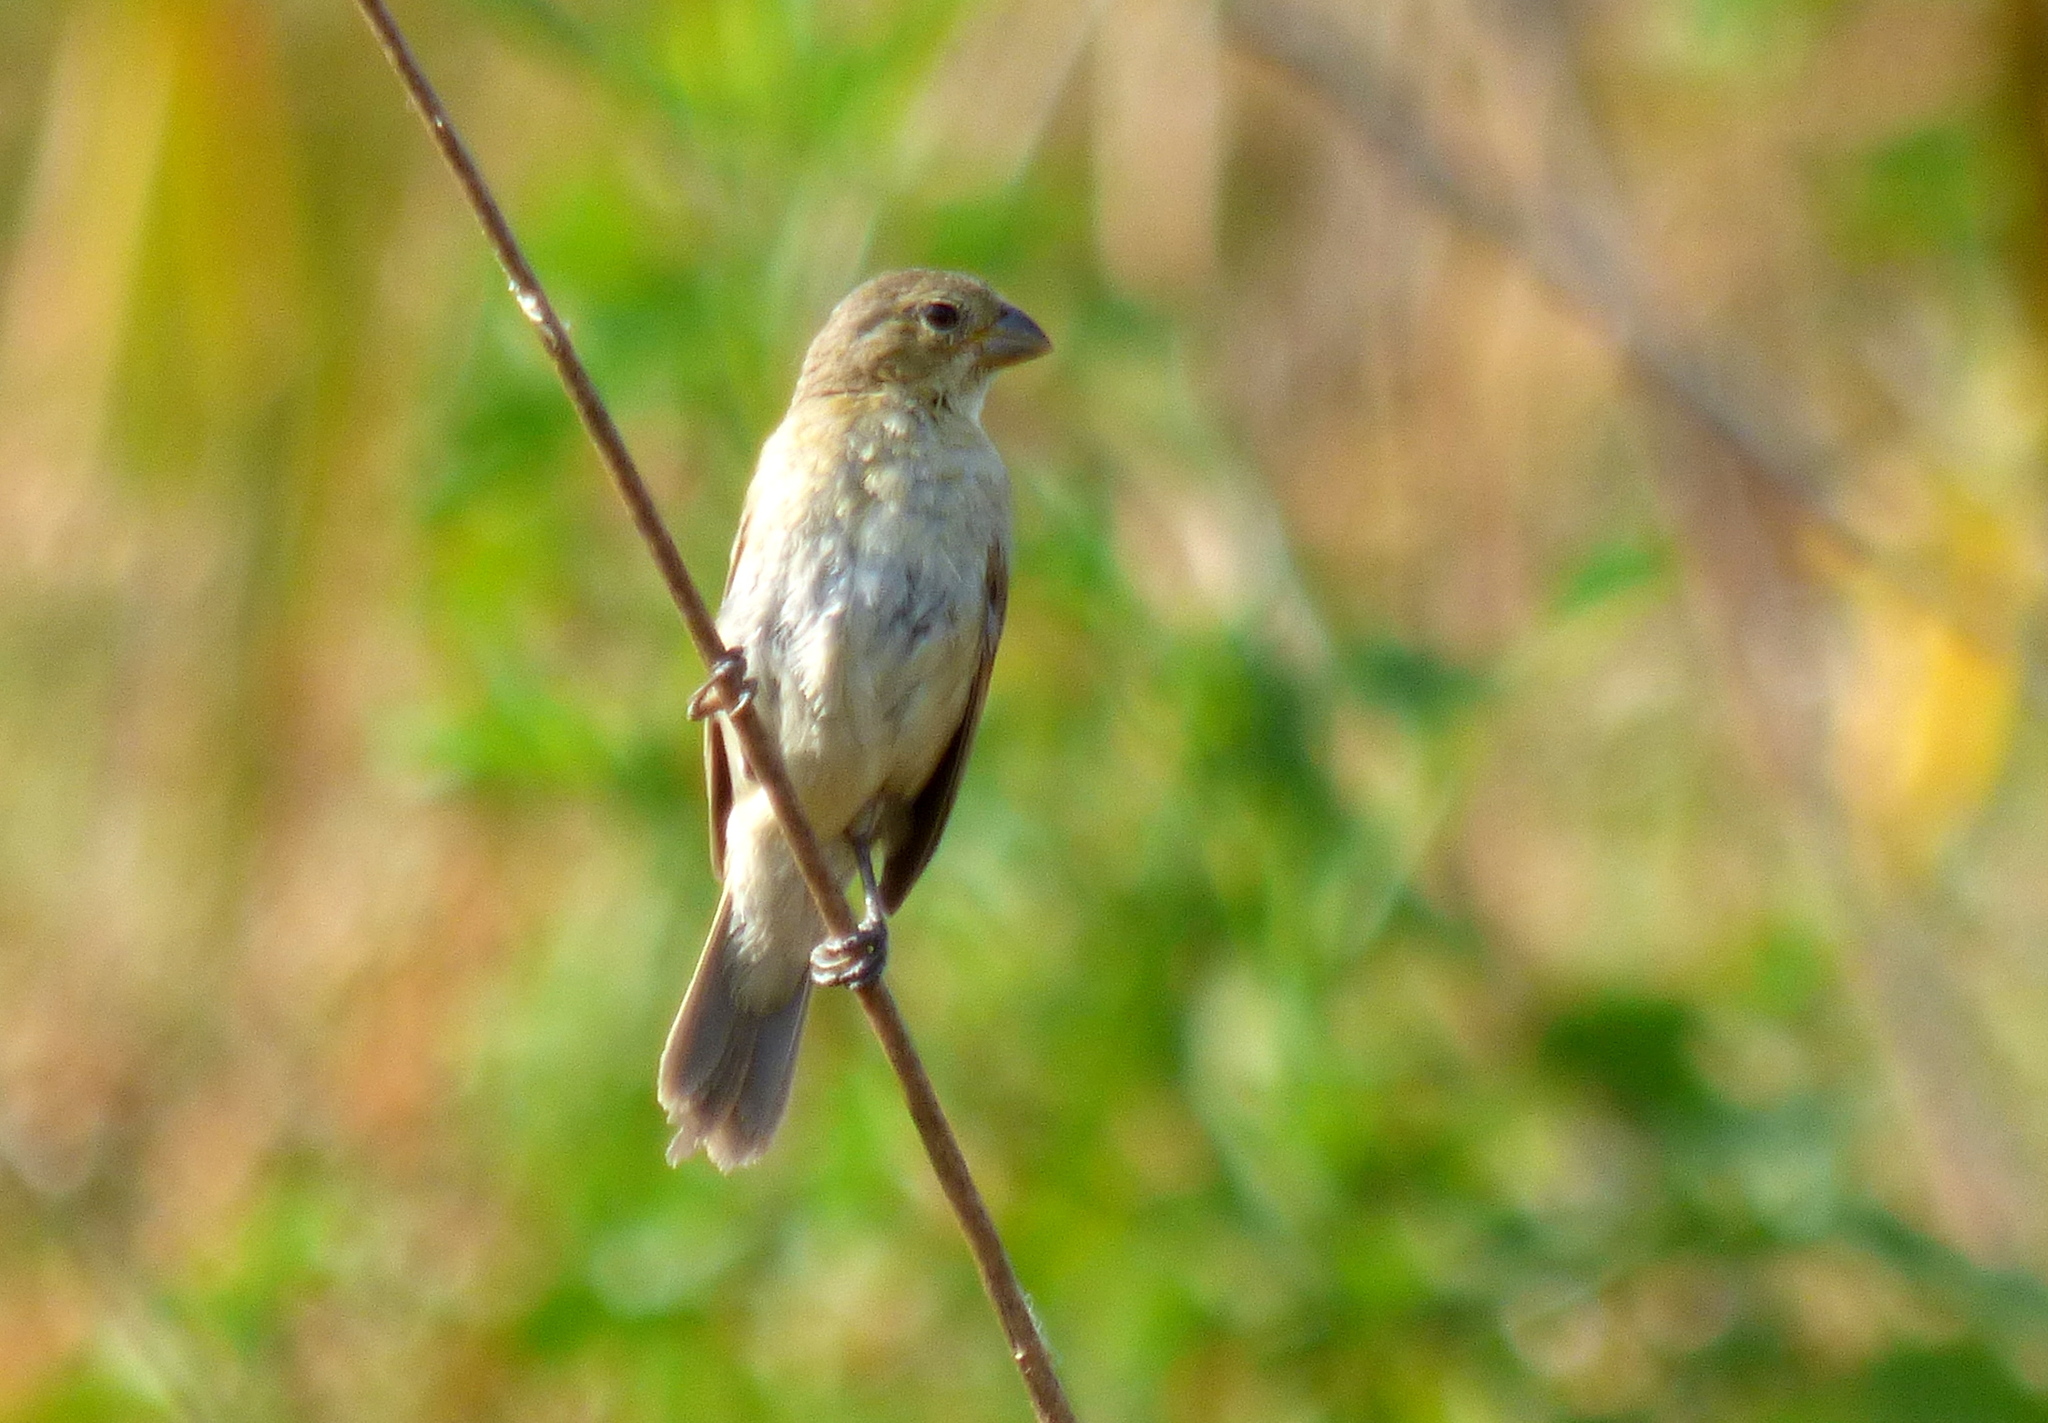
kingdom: Animalia
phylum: Chordata
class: Aves
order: Passeriformes
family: Thraupidae
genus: Sporophila
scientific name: Sporophila caerulescens
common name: Double-collared seedeater
